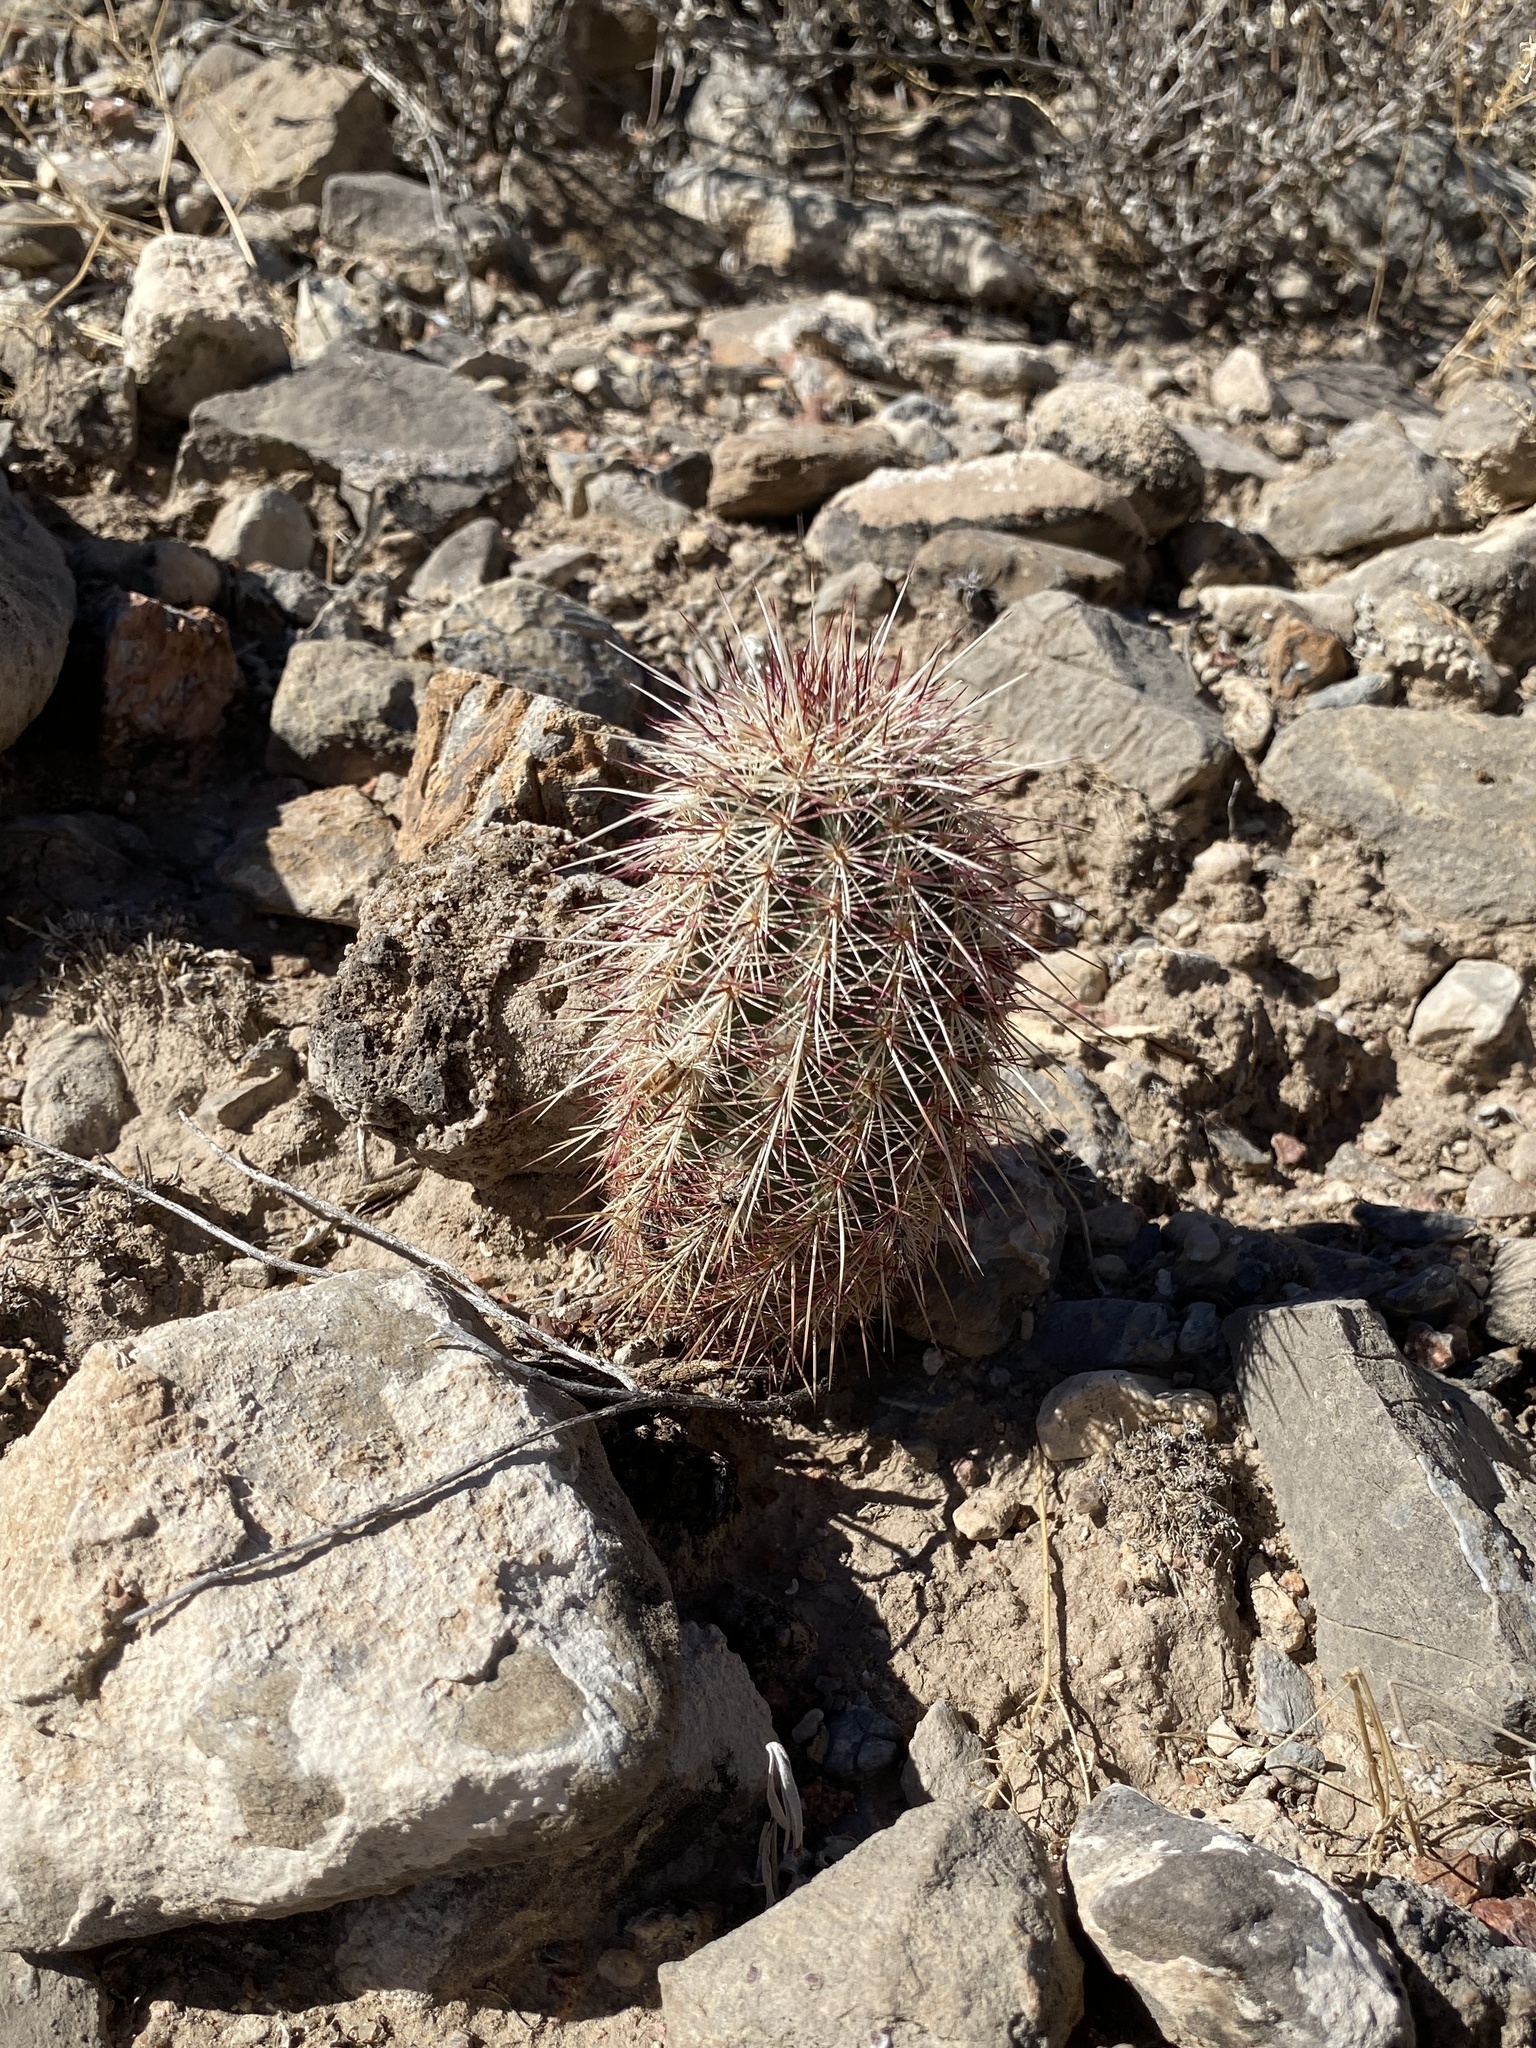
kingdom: Plantae
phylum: Tracheophyta
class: Magnoliopsida
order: Caryophyllales
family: Cactaceae
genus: Echinocereus
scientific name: Echinocereus viridiflorus
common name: Nylon hedgehog cactus
